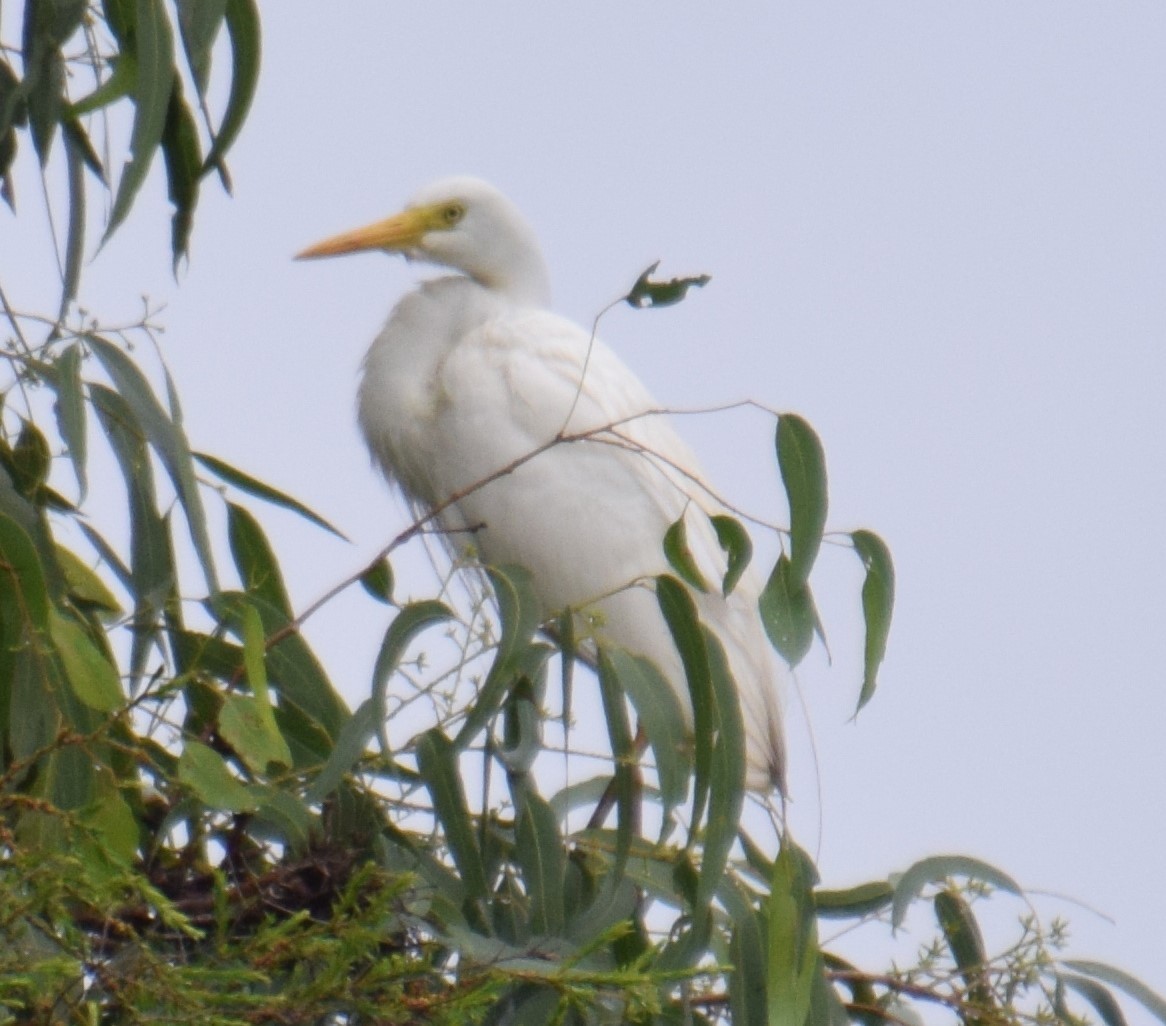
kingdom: Animalia
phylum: Chordata
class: Aves
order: Pelecaniformes
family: Ardeidae
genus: Egretta
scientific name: Egretta intermedia
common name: Intermediate egret
